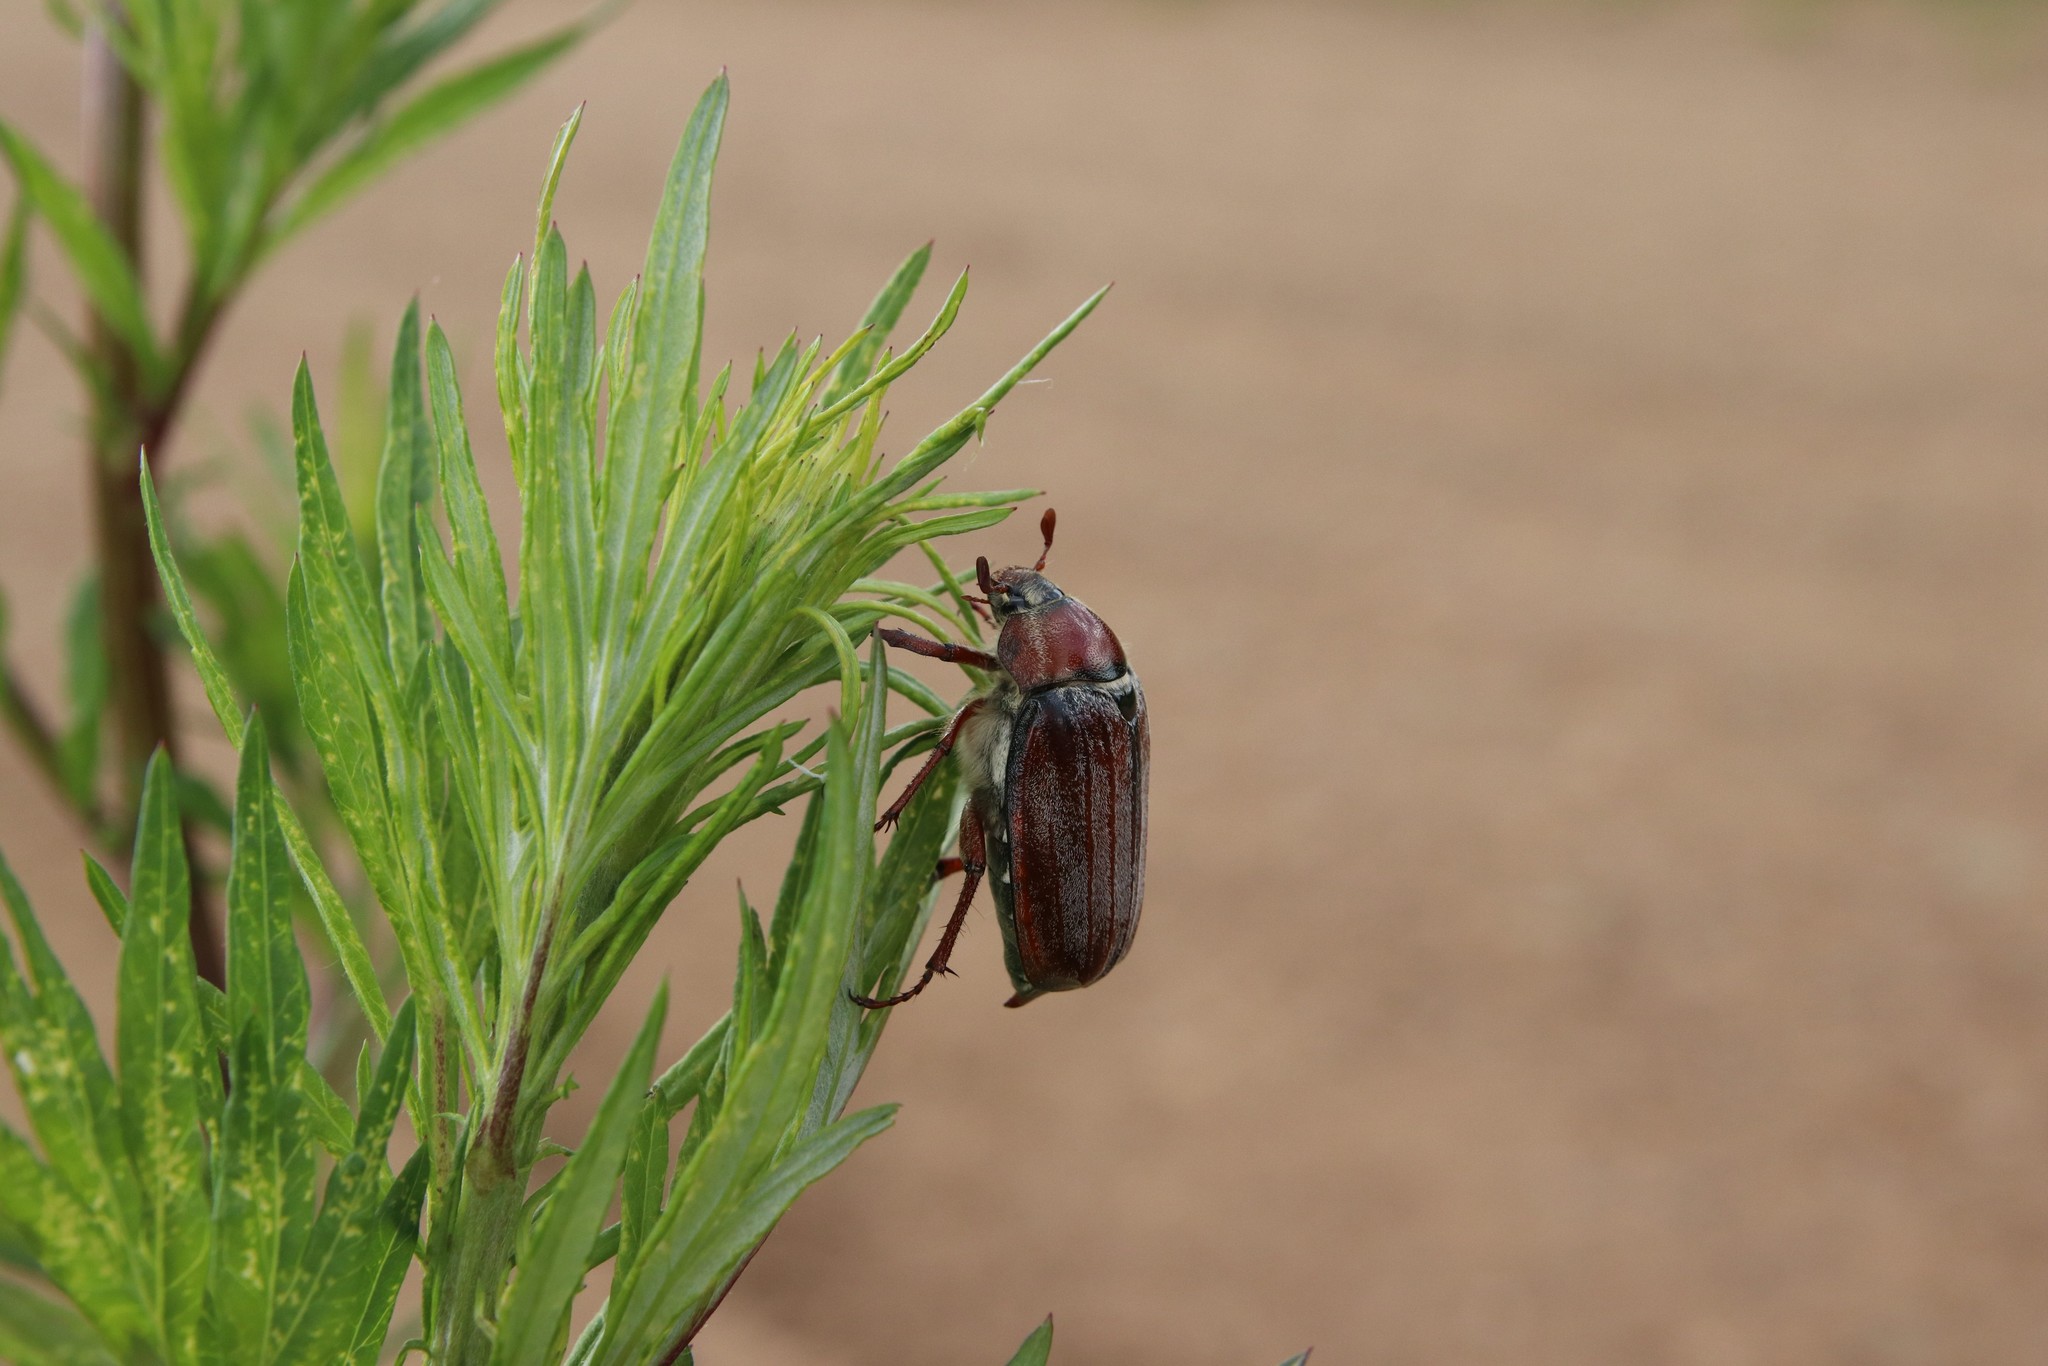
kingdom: Animalia
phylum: Arthropoda
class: Insecta
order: Coleoptera
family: Scarabaeidae
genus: Melolontha
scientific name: Melolontha hippocastani
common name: Chestnut cockchafer
